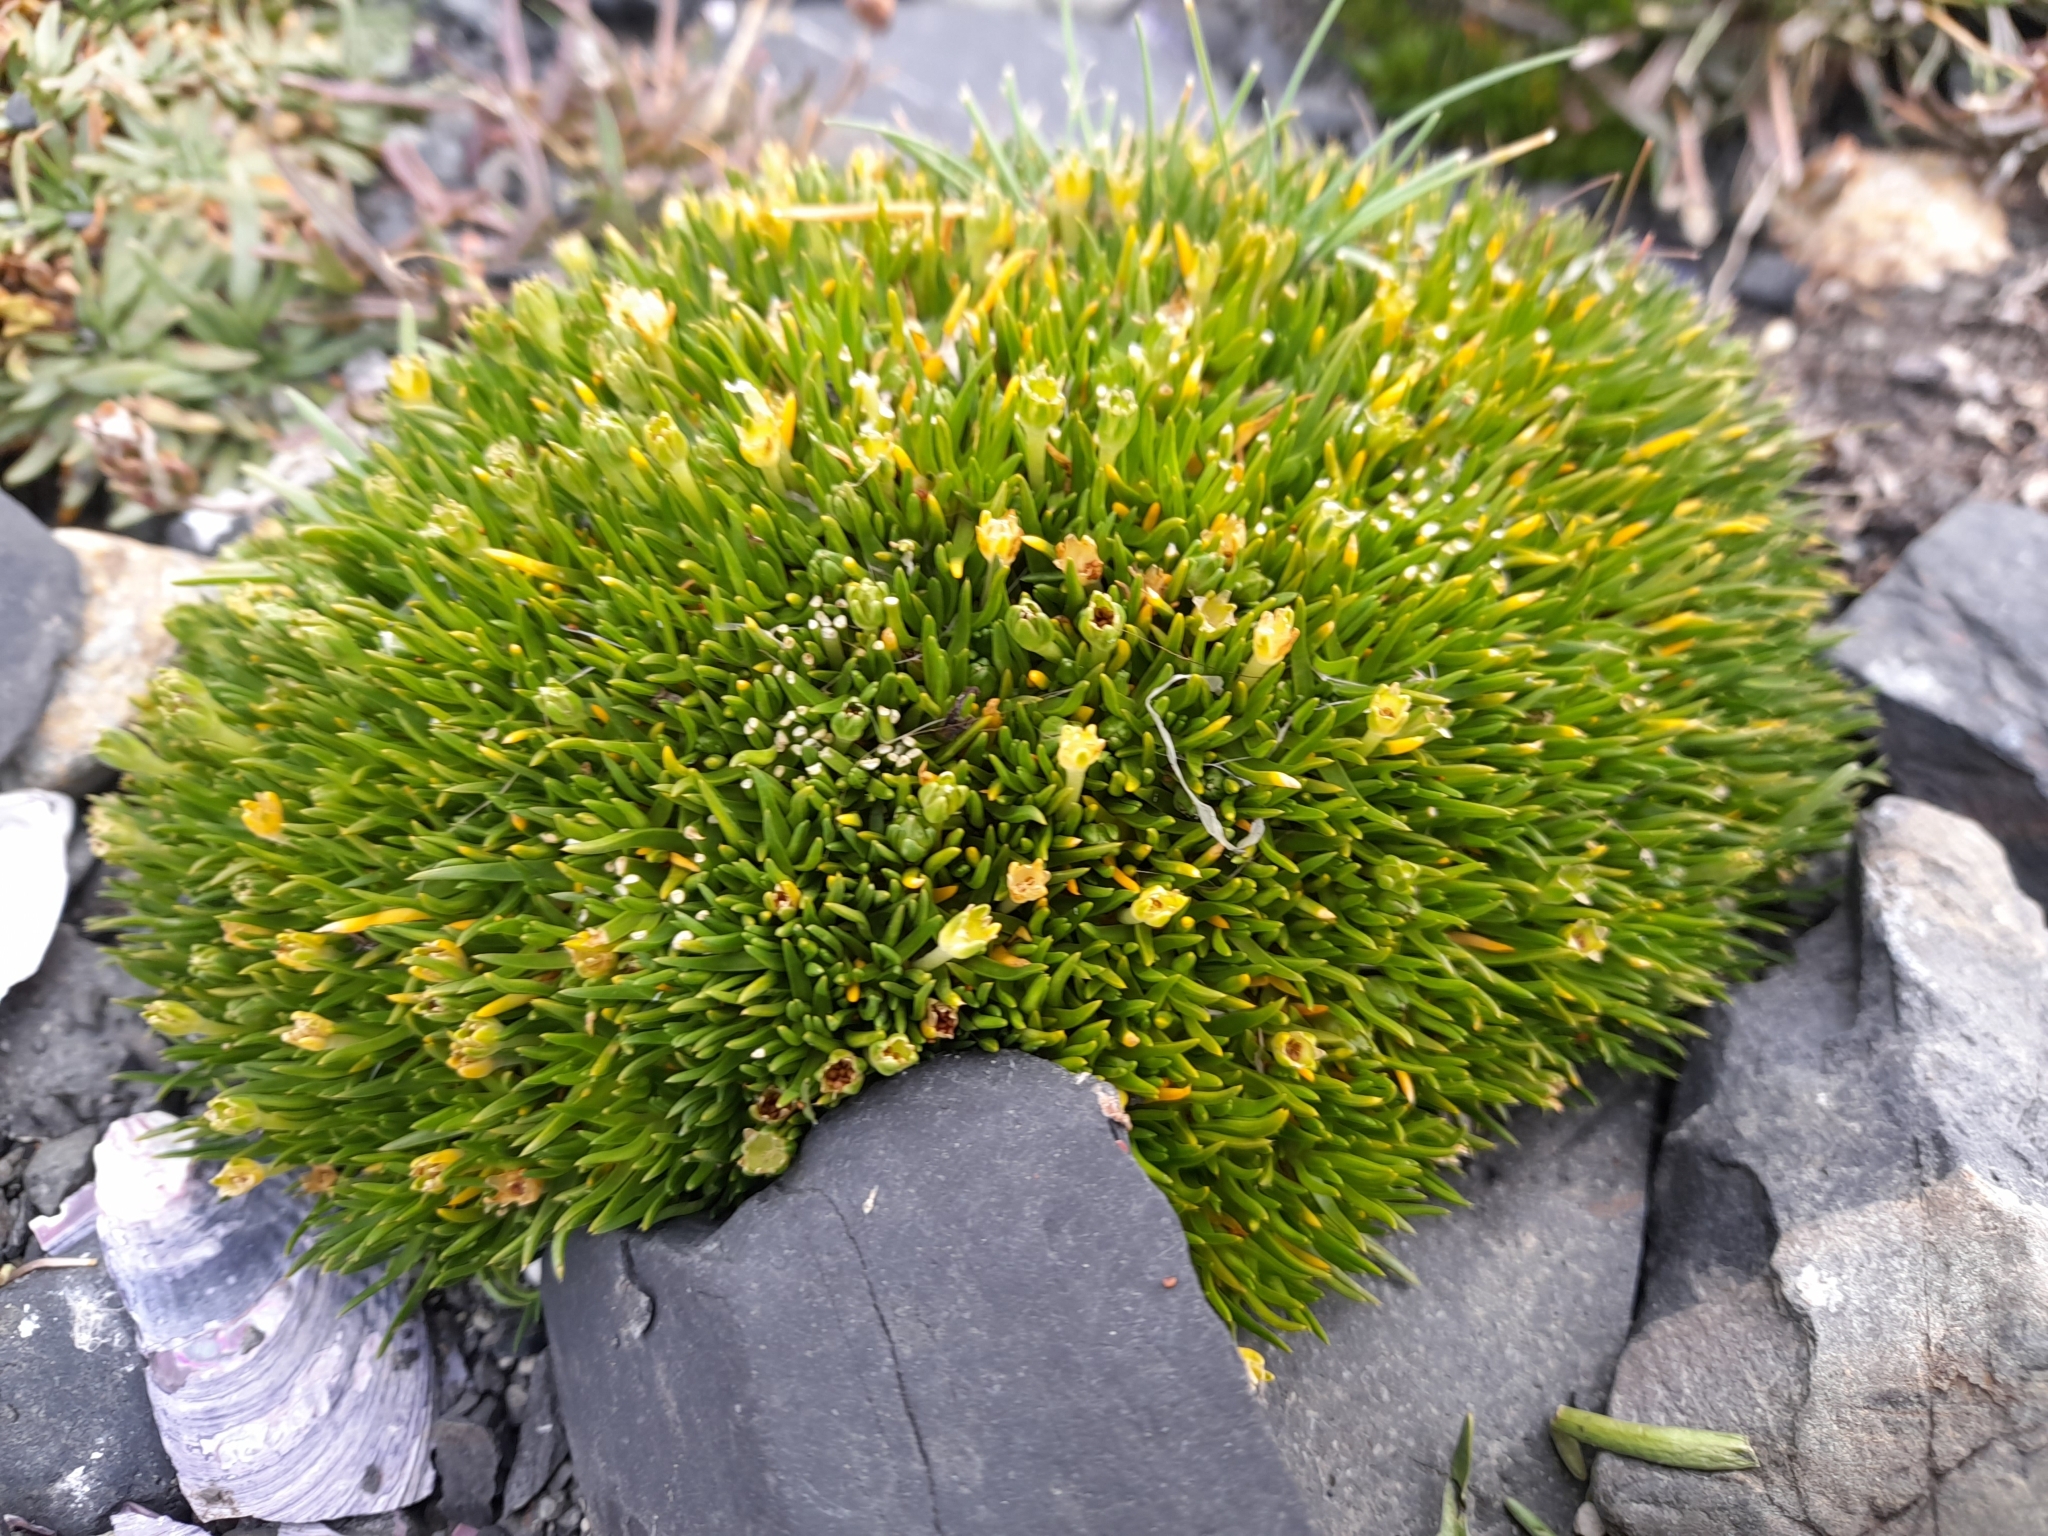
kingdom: Plantae
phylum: Tracheophyta
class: Magnoliopsida
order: Caryophyllales
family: Caryophyllaceae
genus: Colobanthus
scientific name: Colobanthus quitensis
